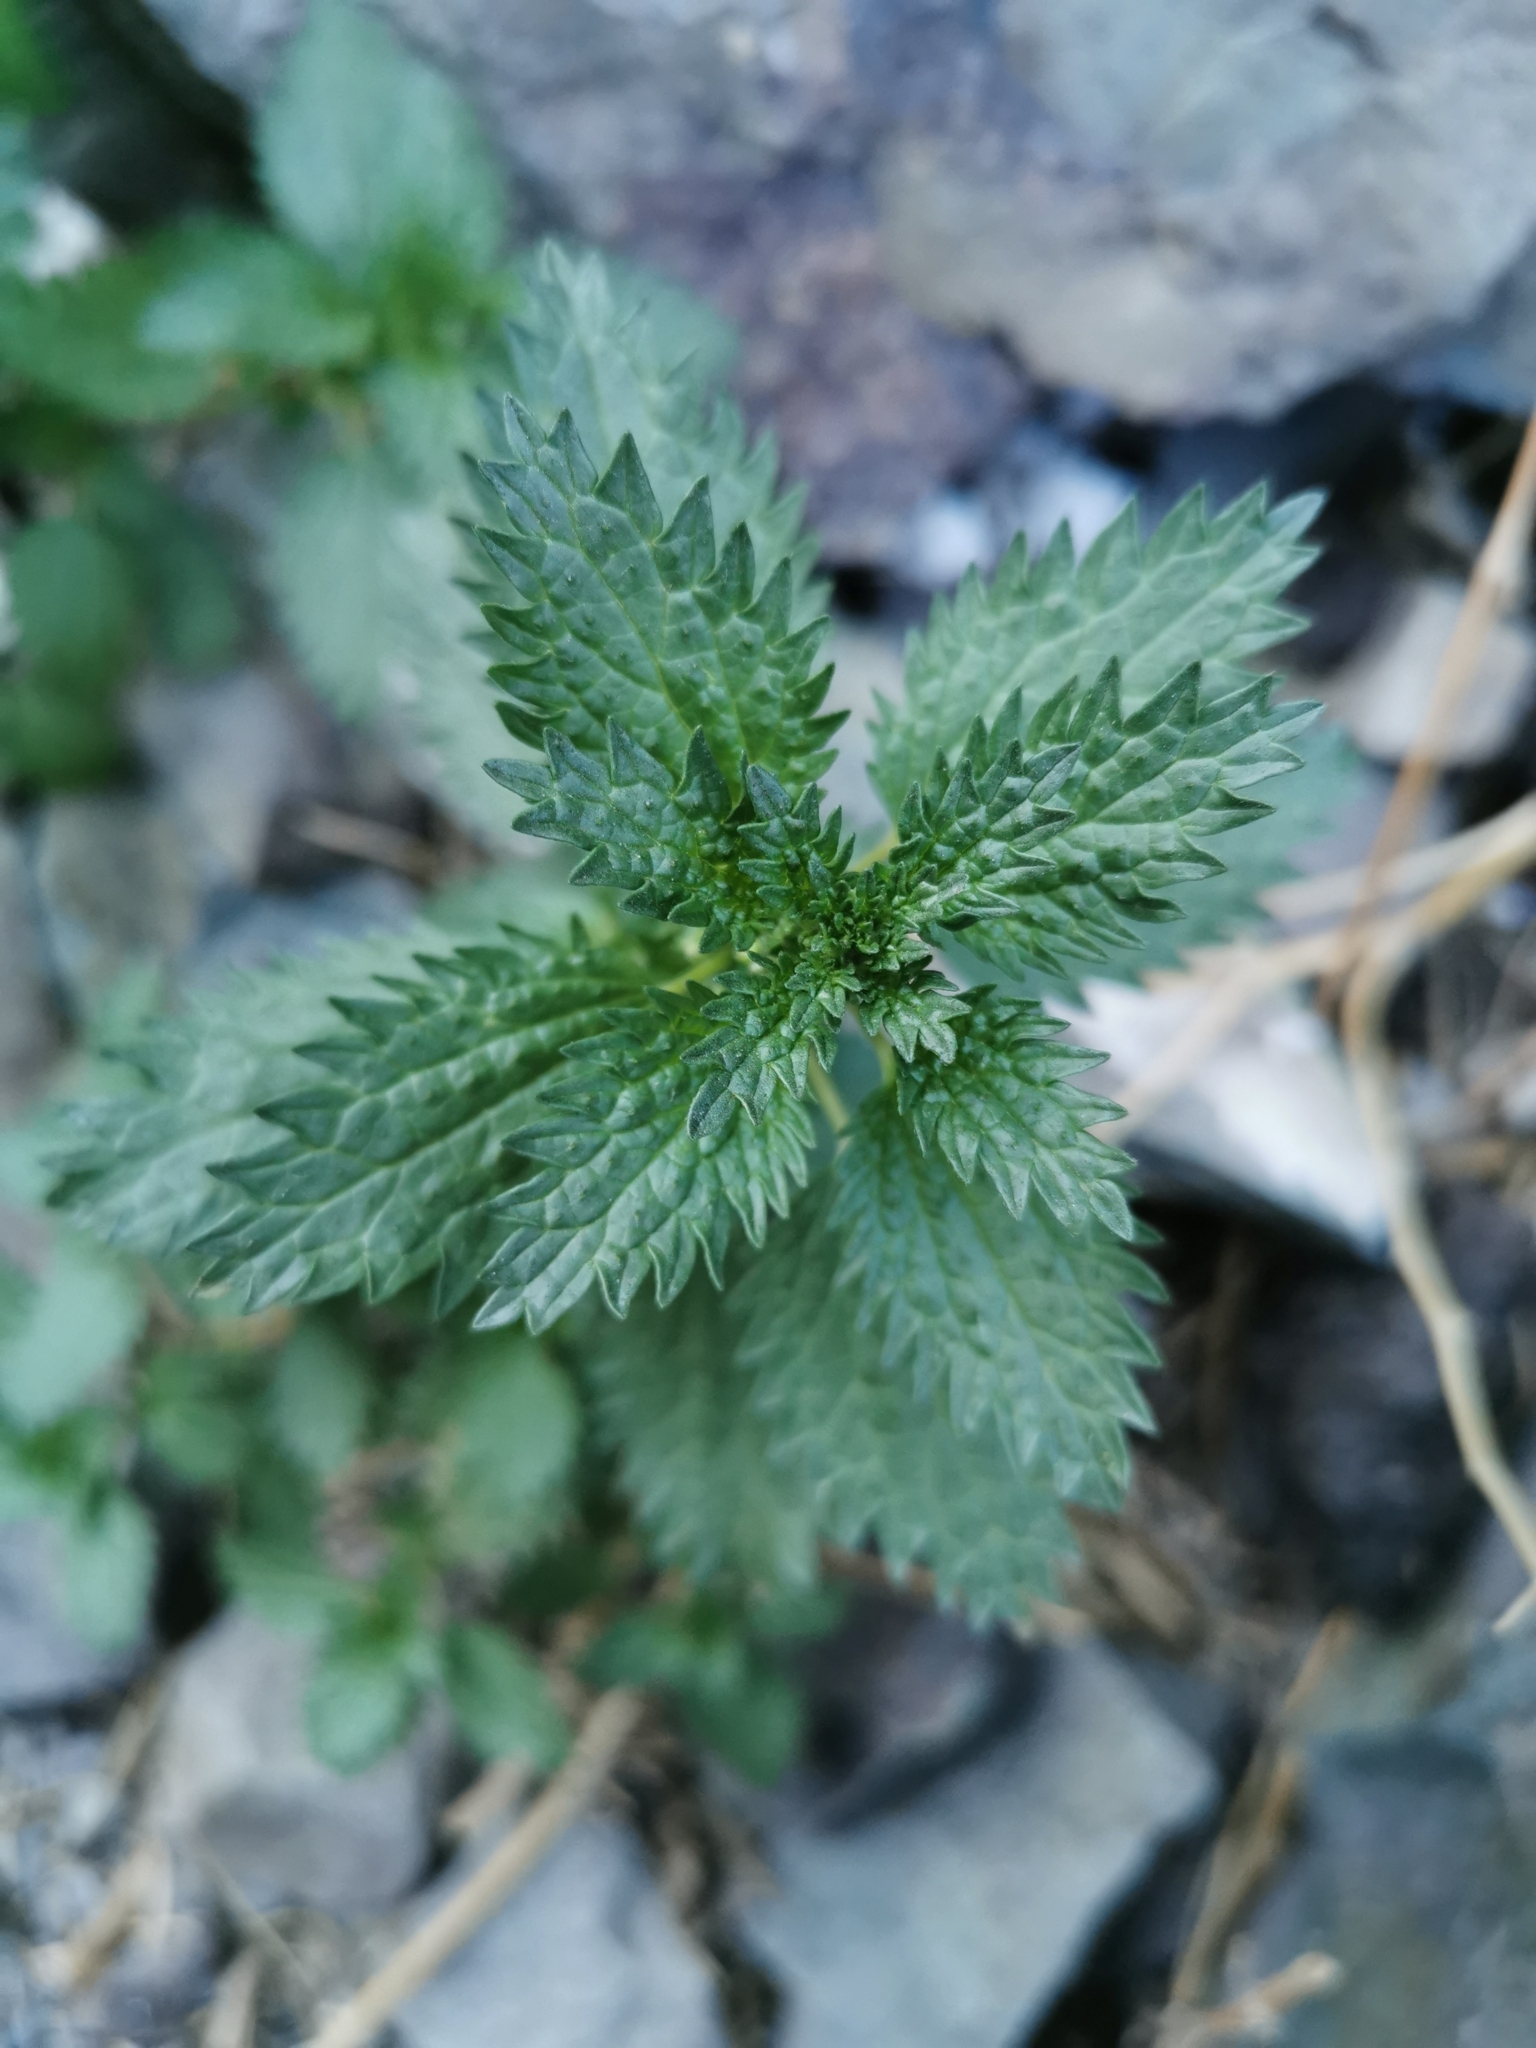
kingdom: Plantae
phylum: Tracheophyta
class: Magnoliopsida
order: Rosales
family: Urticaceae
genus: Urtica
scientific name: Urtica urens
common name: Dwarf nettle
